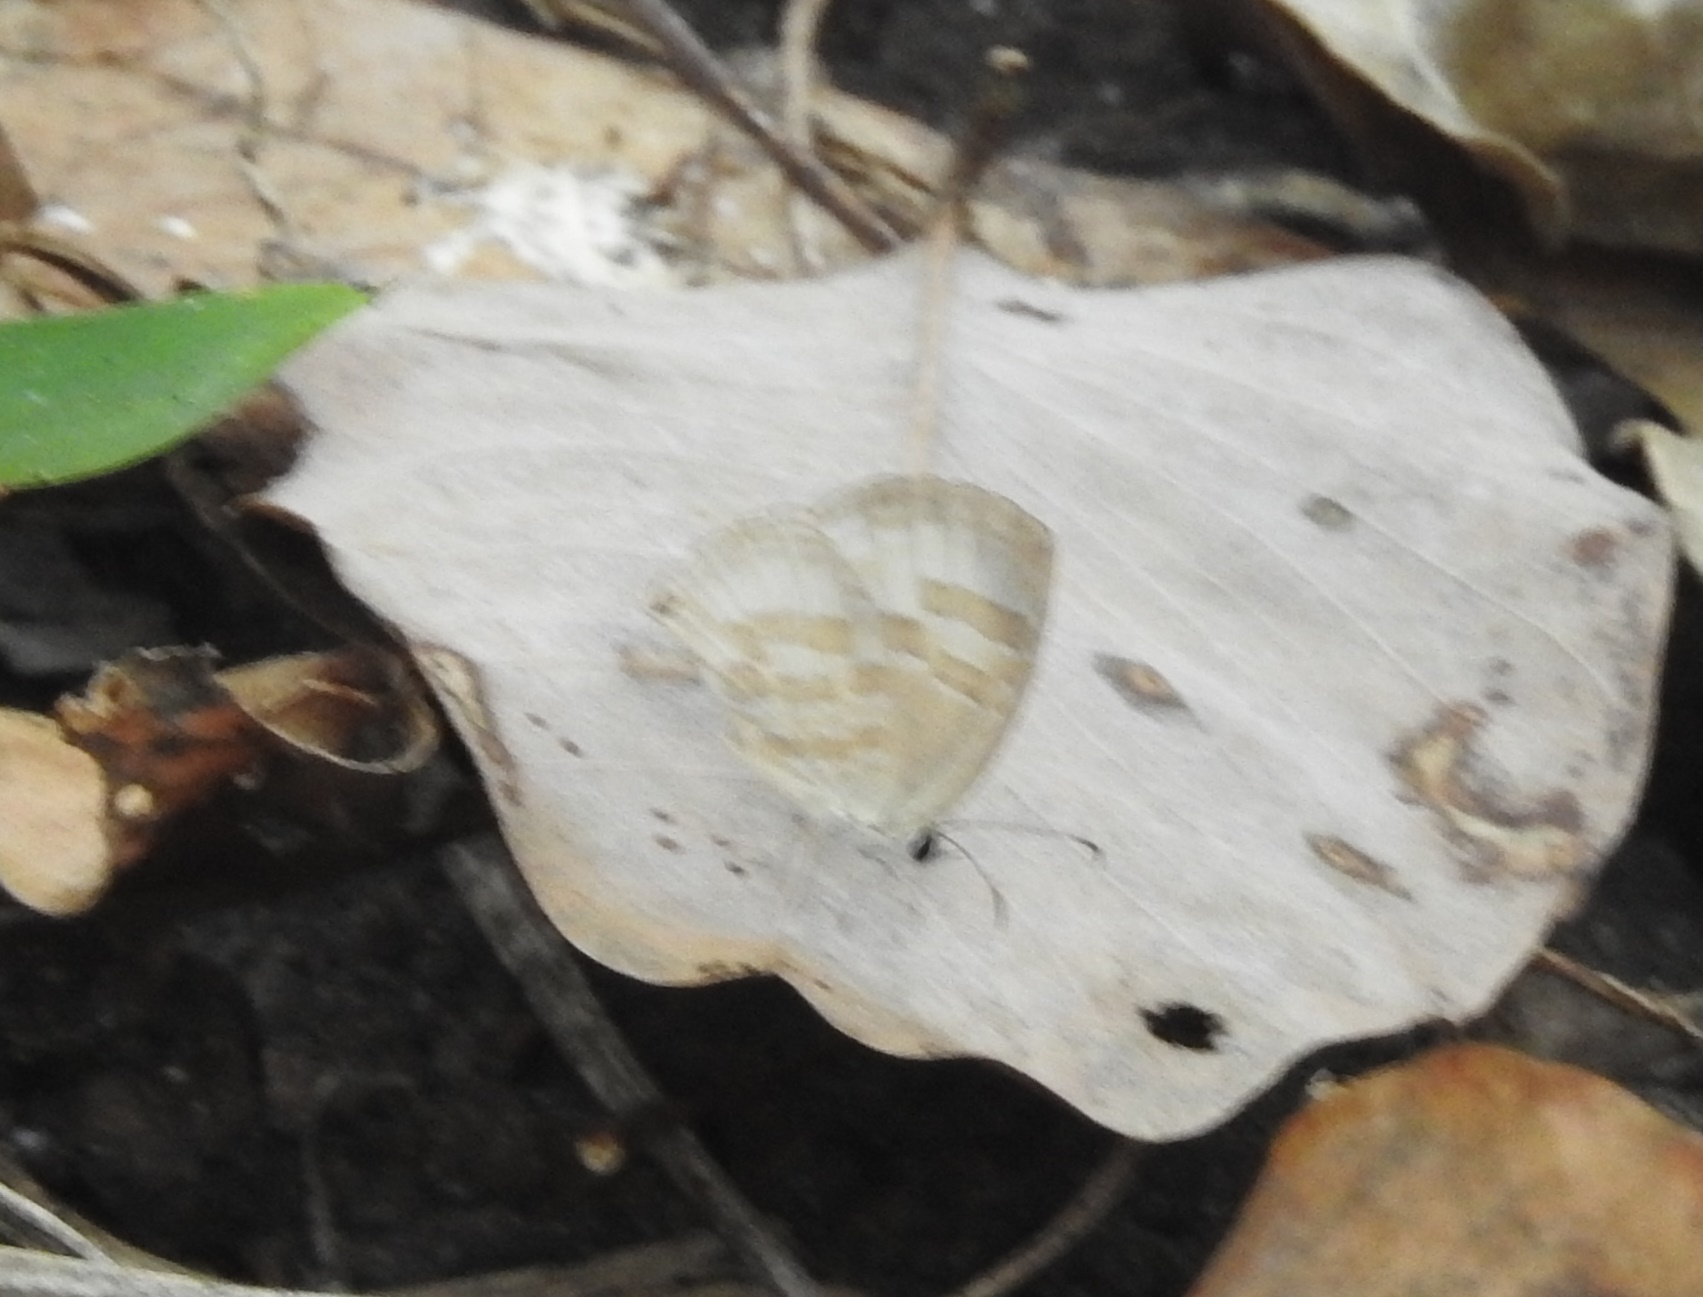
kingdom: Animalia
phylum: Arthropoda
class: Insecta
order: Lepidoptera
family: Lycaenidae
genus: Jamides
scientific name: Jamides celeno
